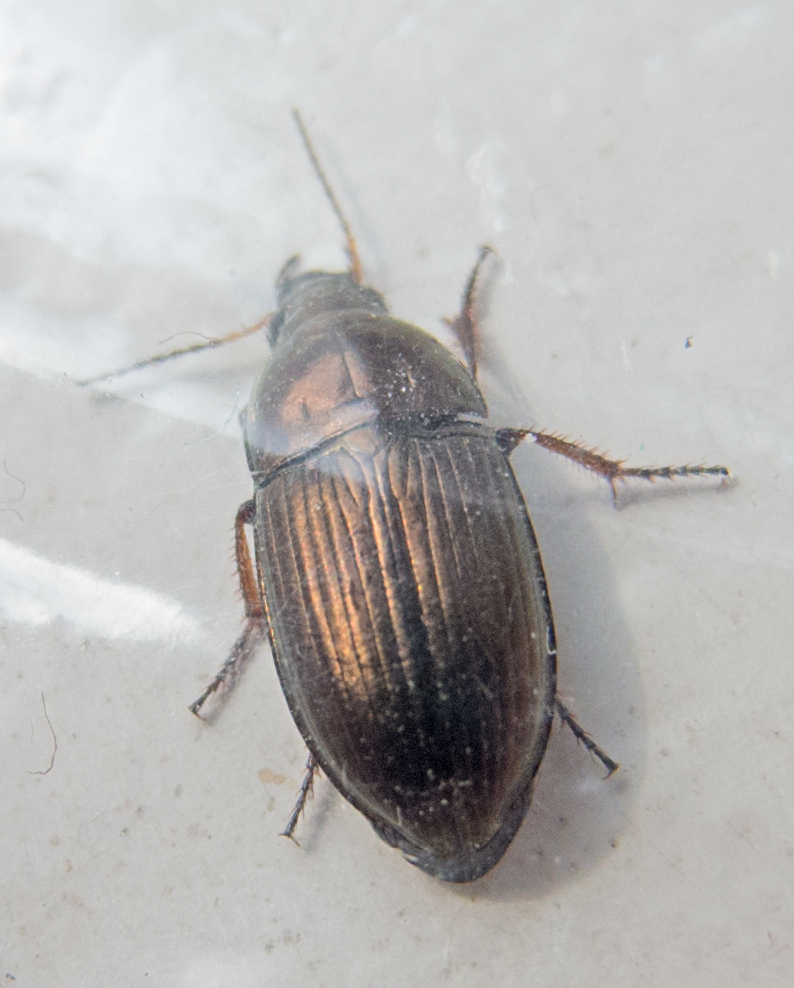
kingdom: Animalia
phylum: Arthropoda
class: Insecta
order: Coleoptera
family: Carabidae
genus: Amara
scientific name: Amara aenea
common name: Common sun beetle
